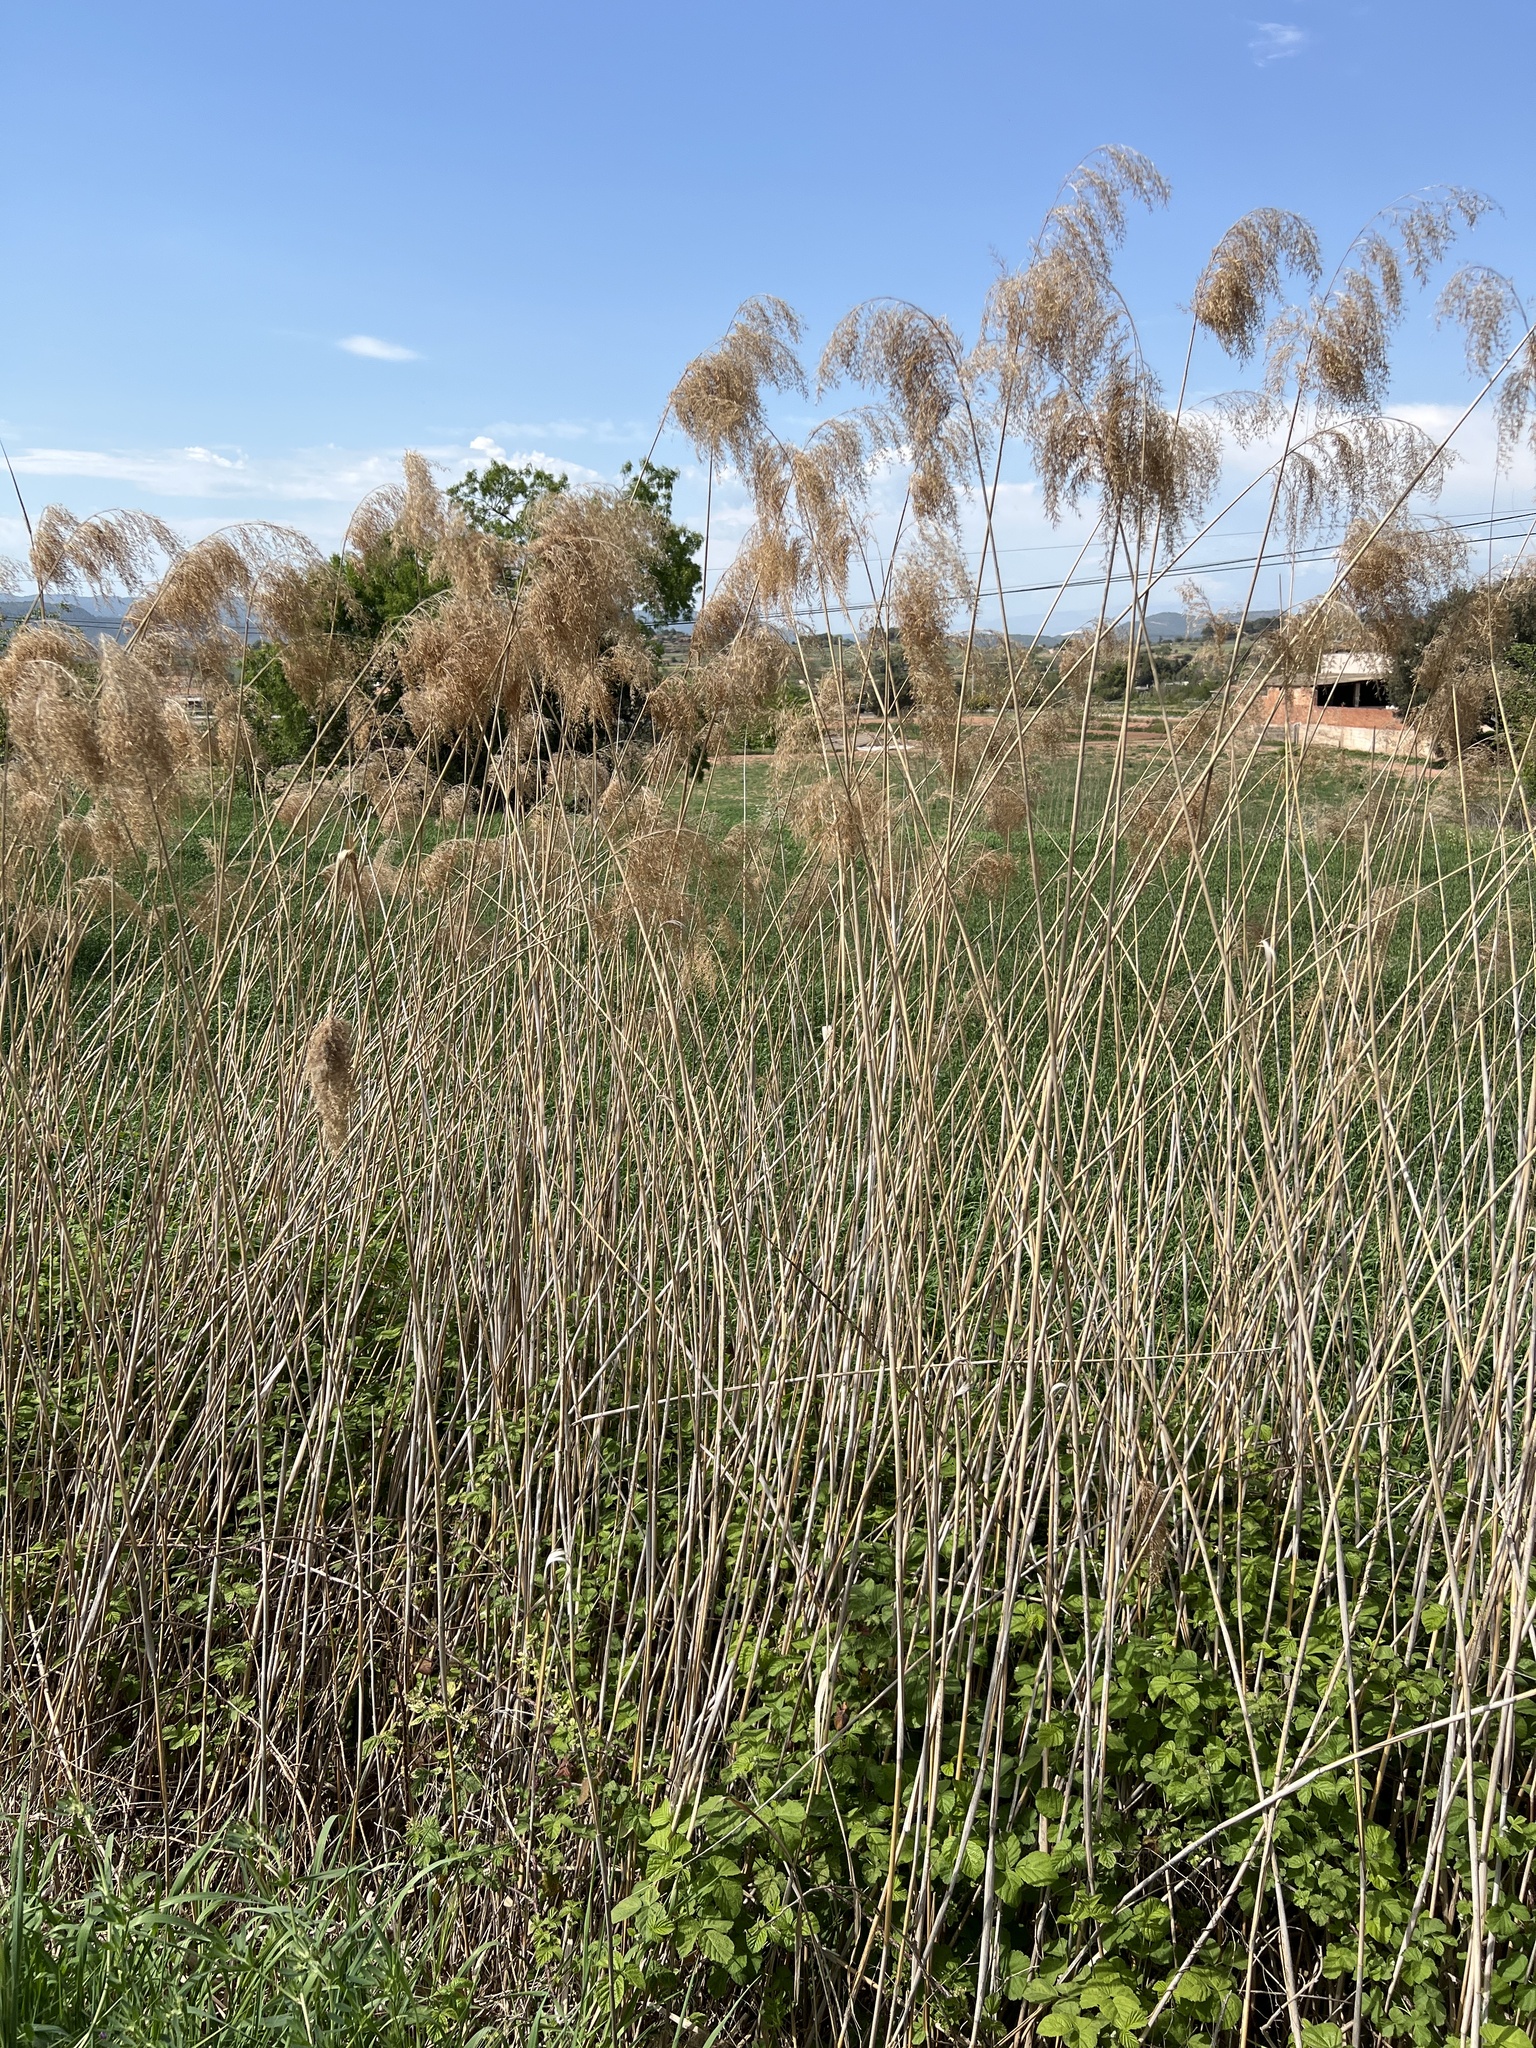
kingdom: Plantae
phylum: Tracheophyta
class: Liliopsida
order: Poales
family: Poaceae
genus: Phragmites
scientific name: Phragmites australis
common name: Common reed
